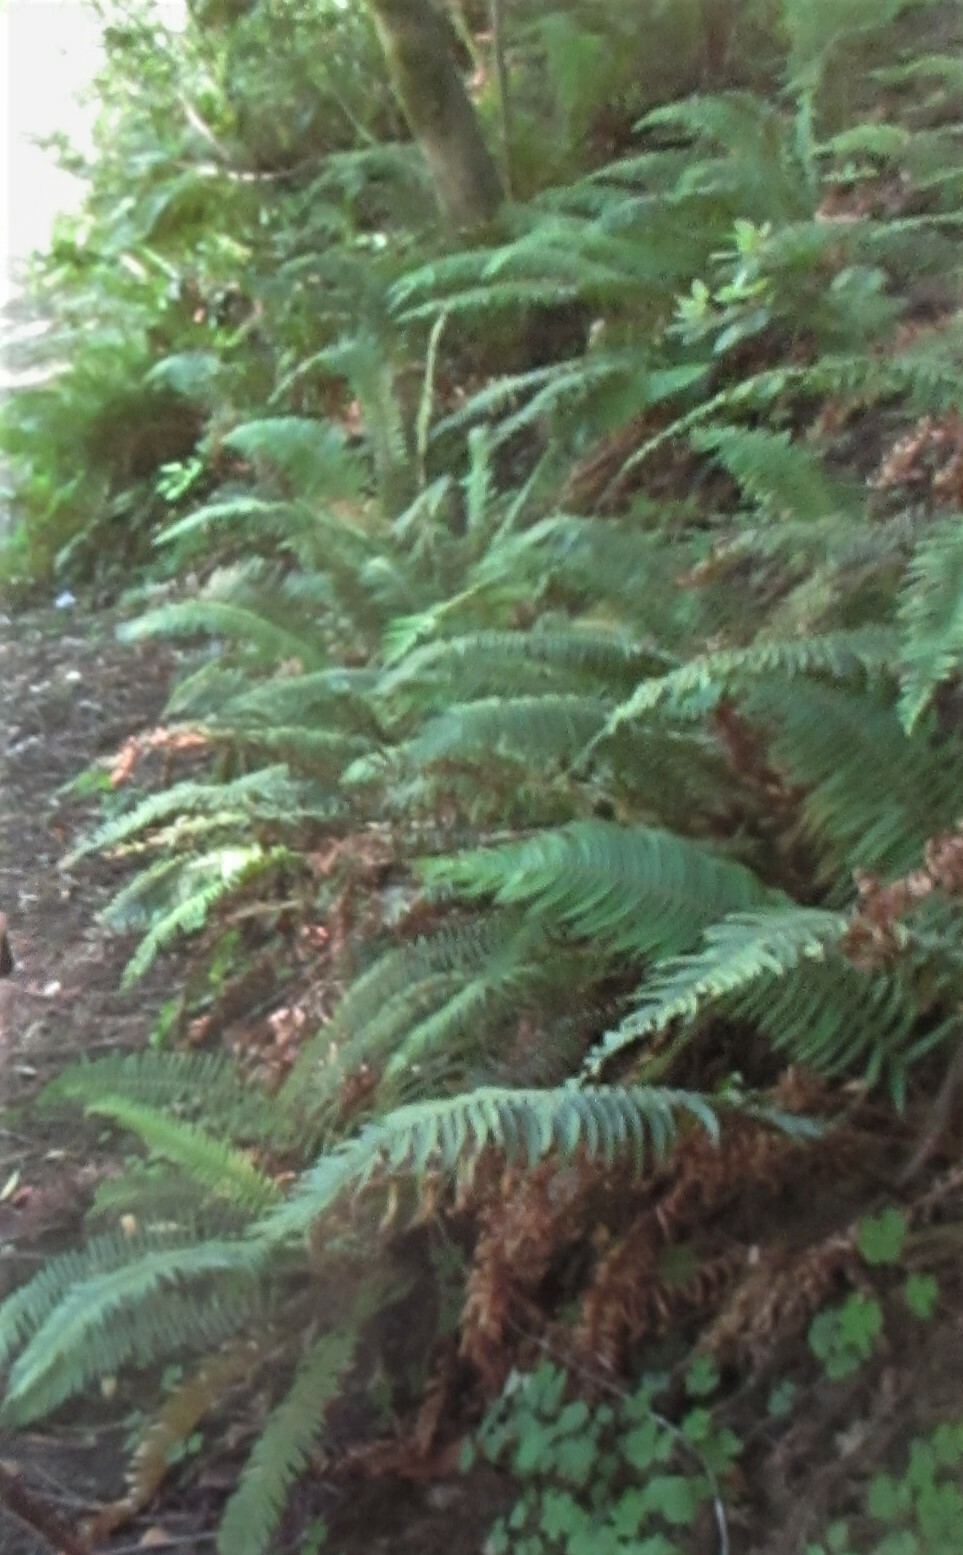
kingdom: Plantae
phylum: Tracheophyta
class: Polypodiopsida
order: Polypodiales
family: Dryopteridaceae
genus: Polystichum
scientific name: Polystichum munitum
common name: Western sword-fern
